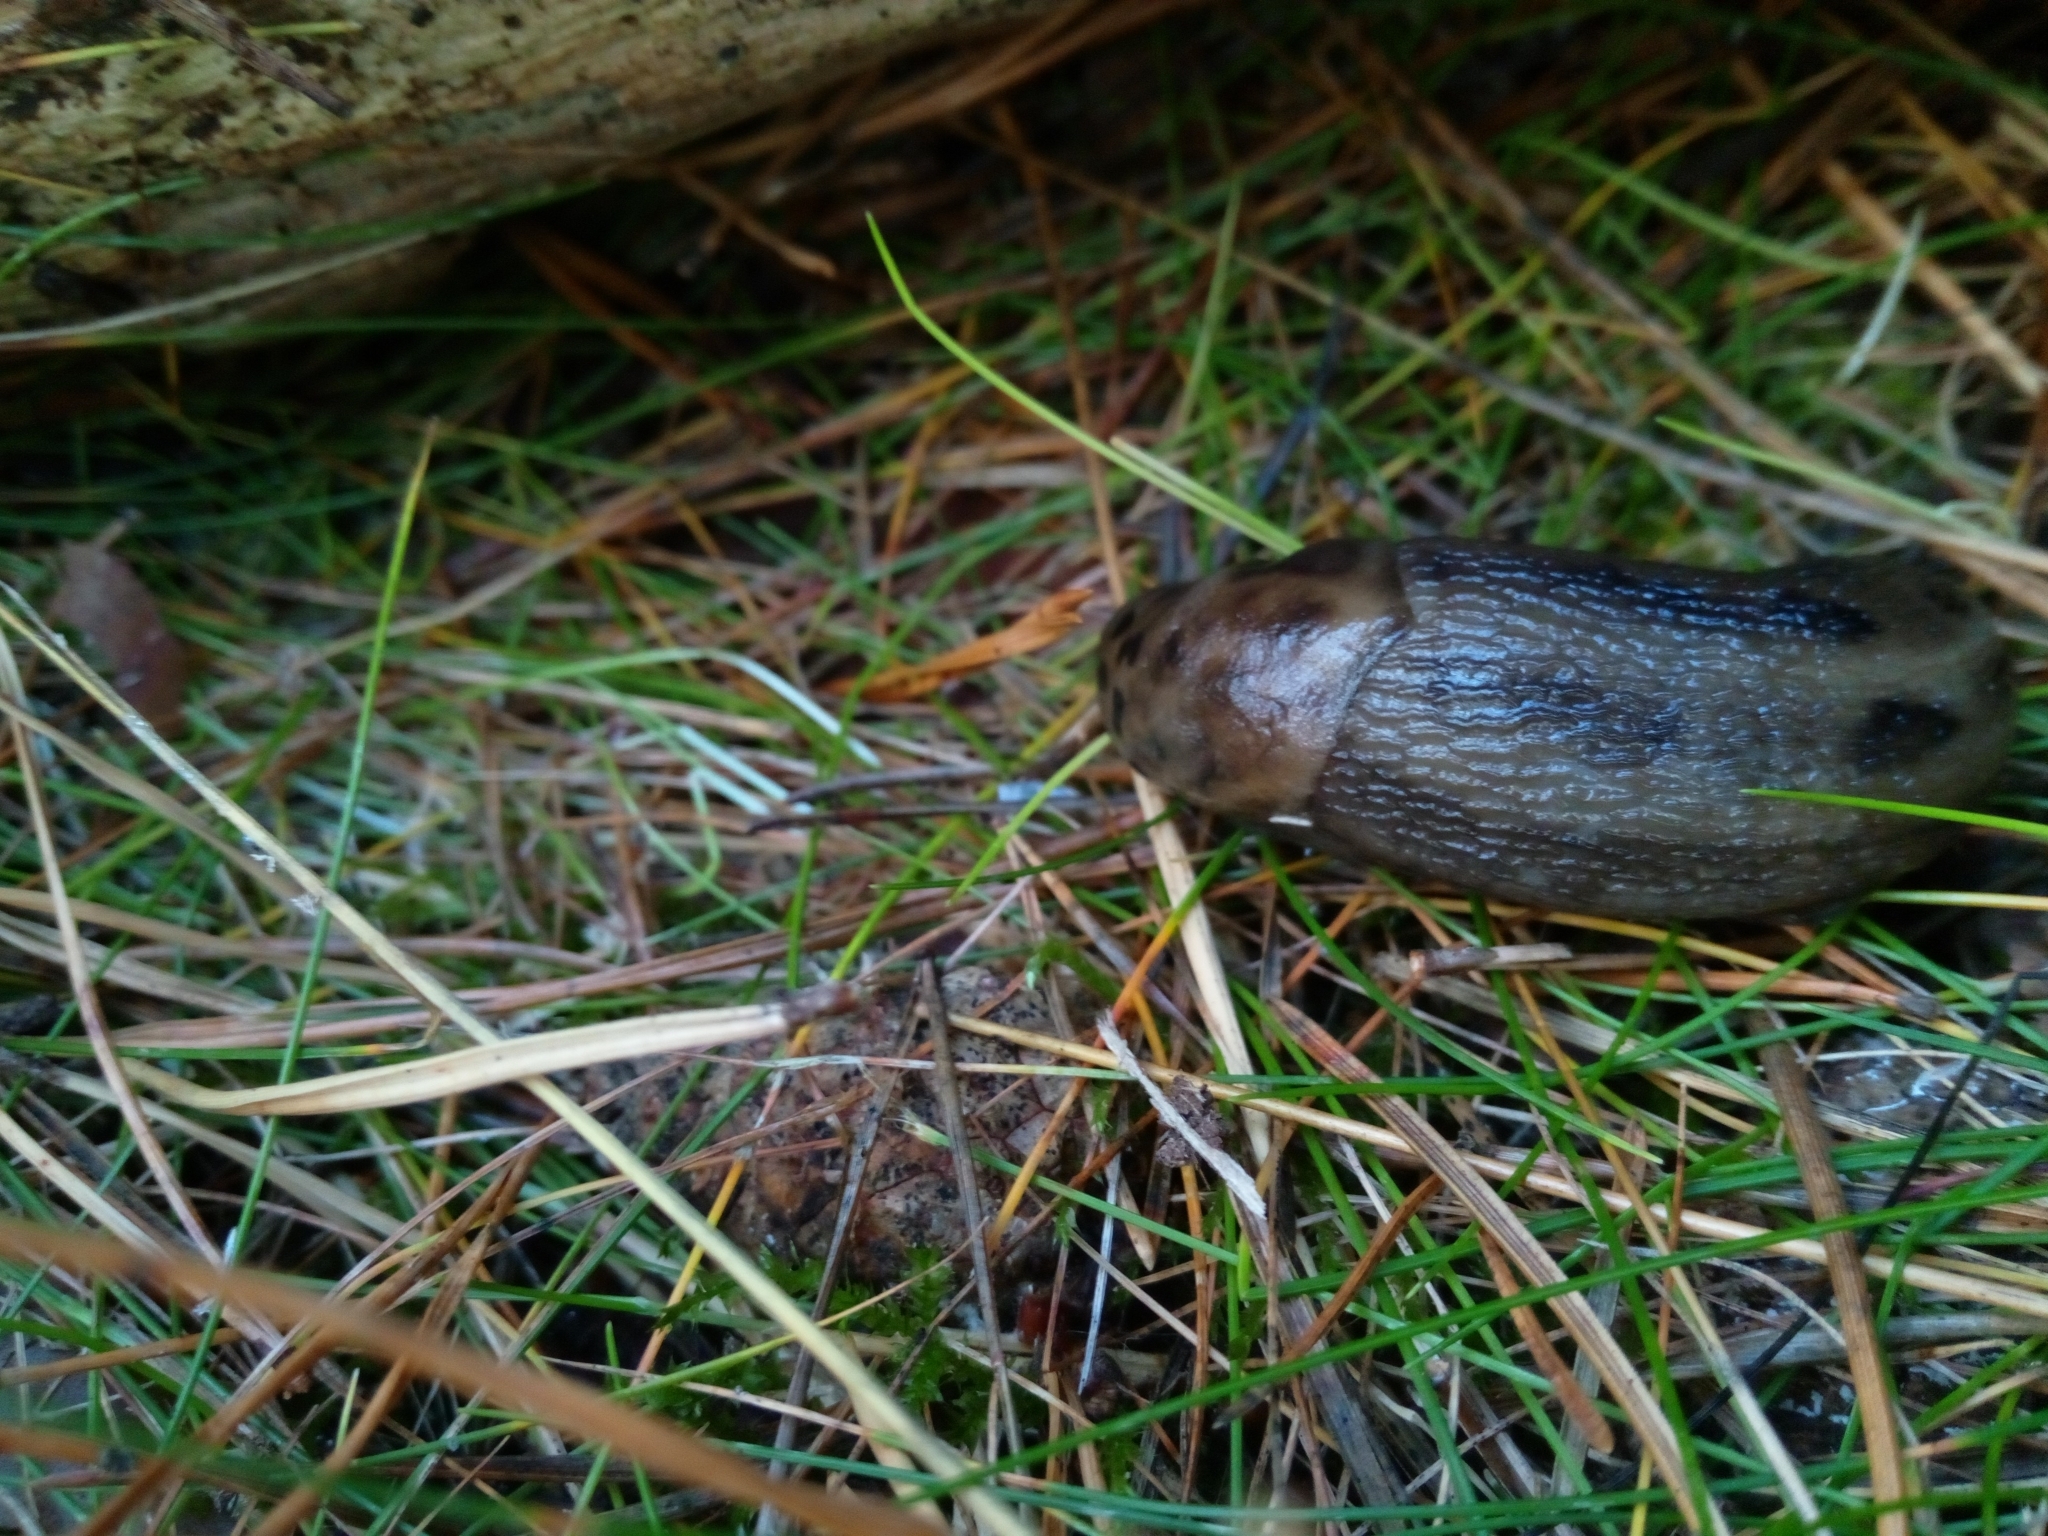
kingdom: Animalia
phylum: Mollusca
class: Gastropoda
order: Stylommatophora
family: Limacidae
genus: Limax
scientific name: Limax maximus
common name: Great grey slug
